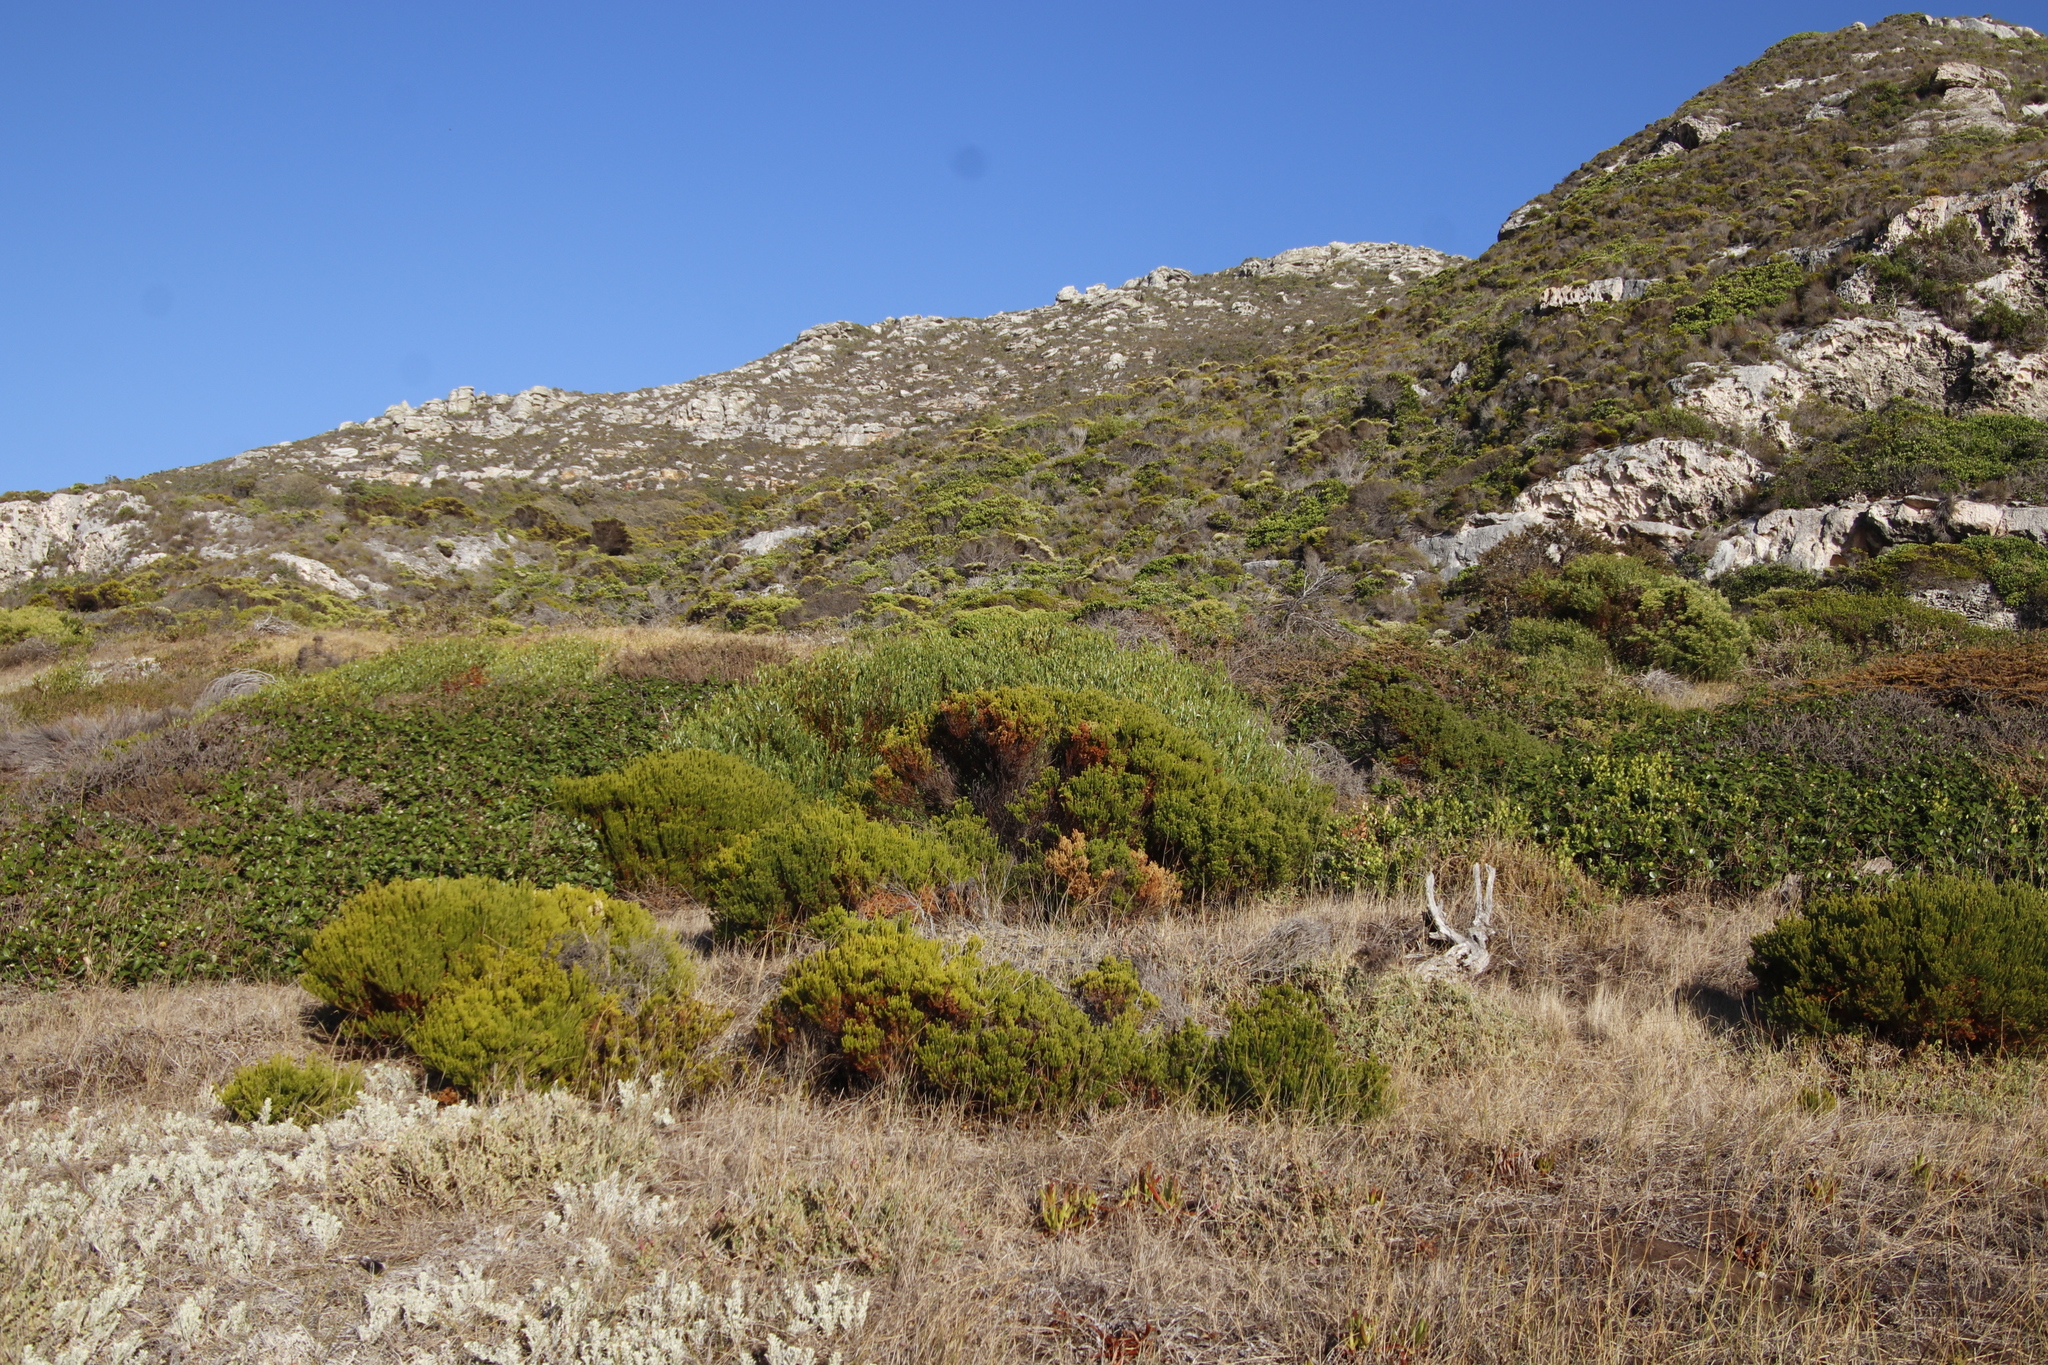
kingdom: Plantae
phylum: Tracheophyta
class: Magnoliopsida
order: Fabales
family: Fabaceae
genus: Acacia
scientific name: Acacia cyclops
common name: Coastal wattle
